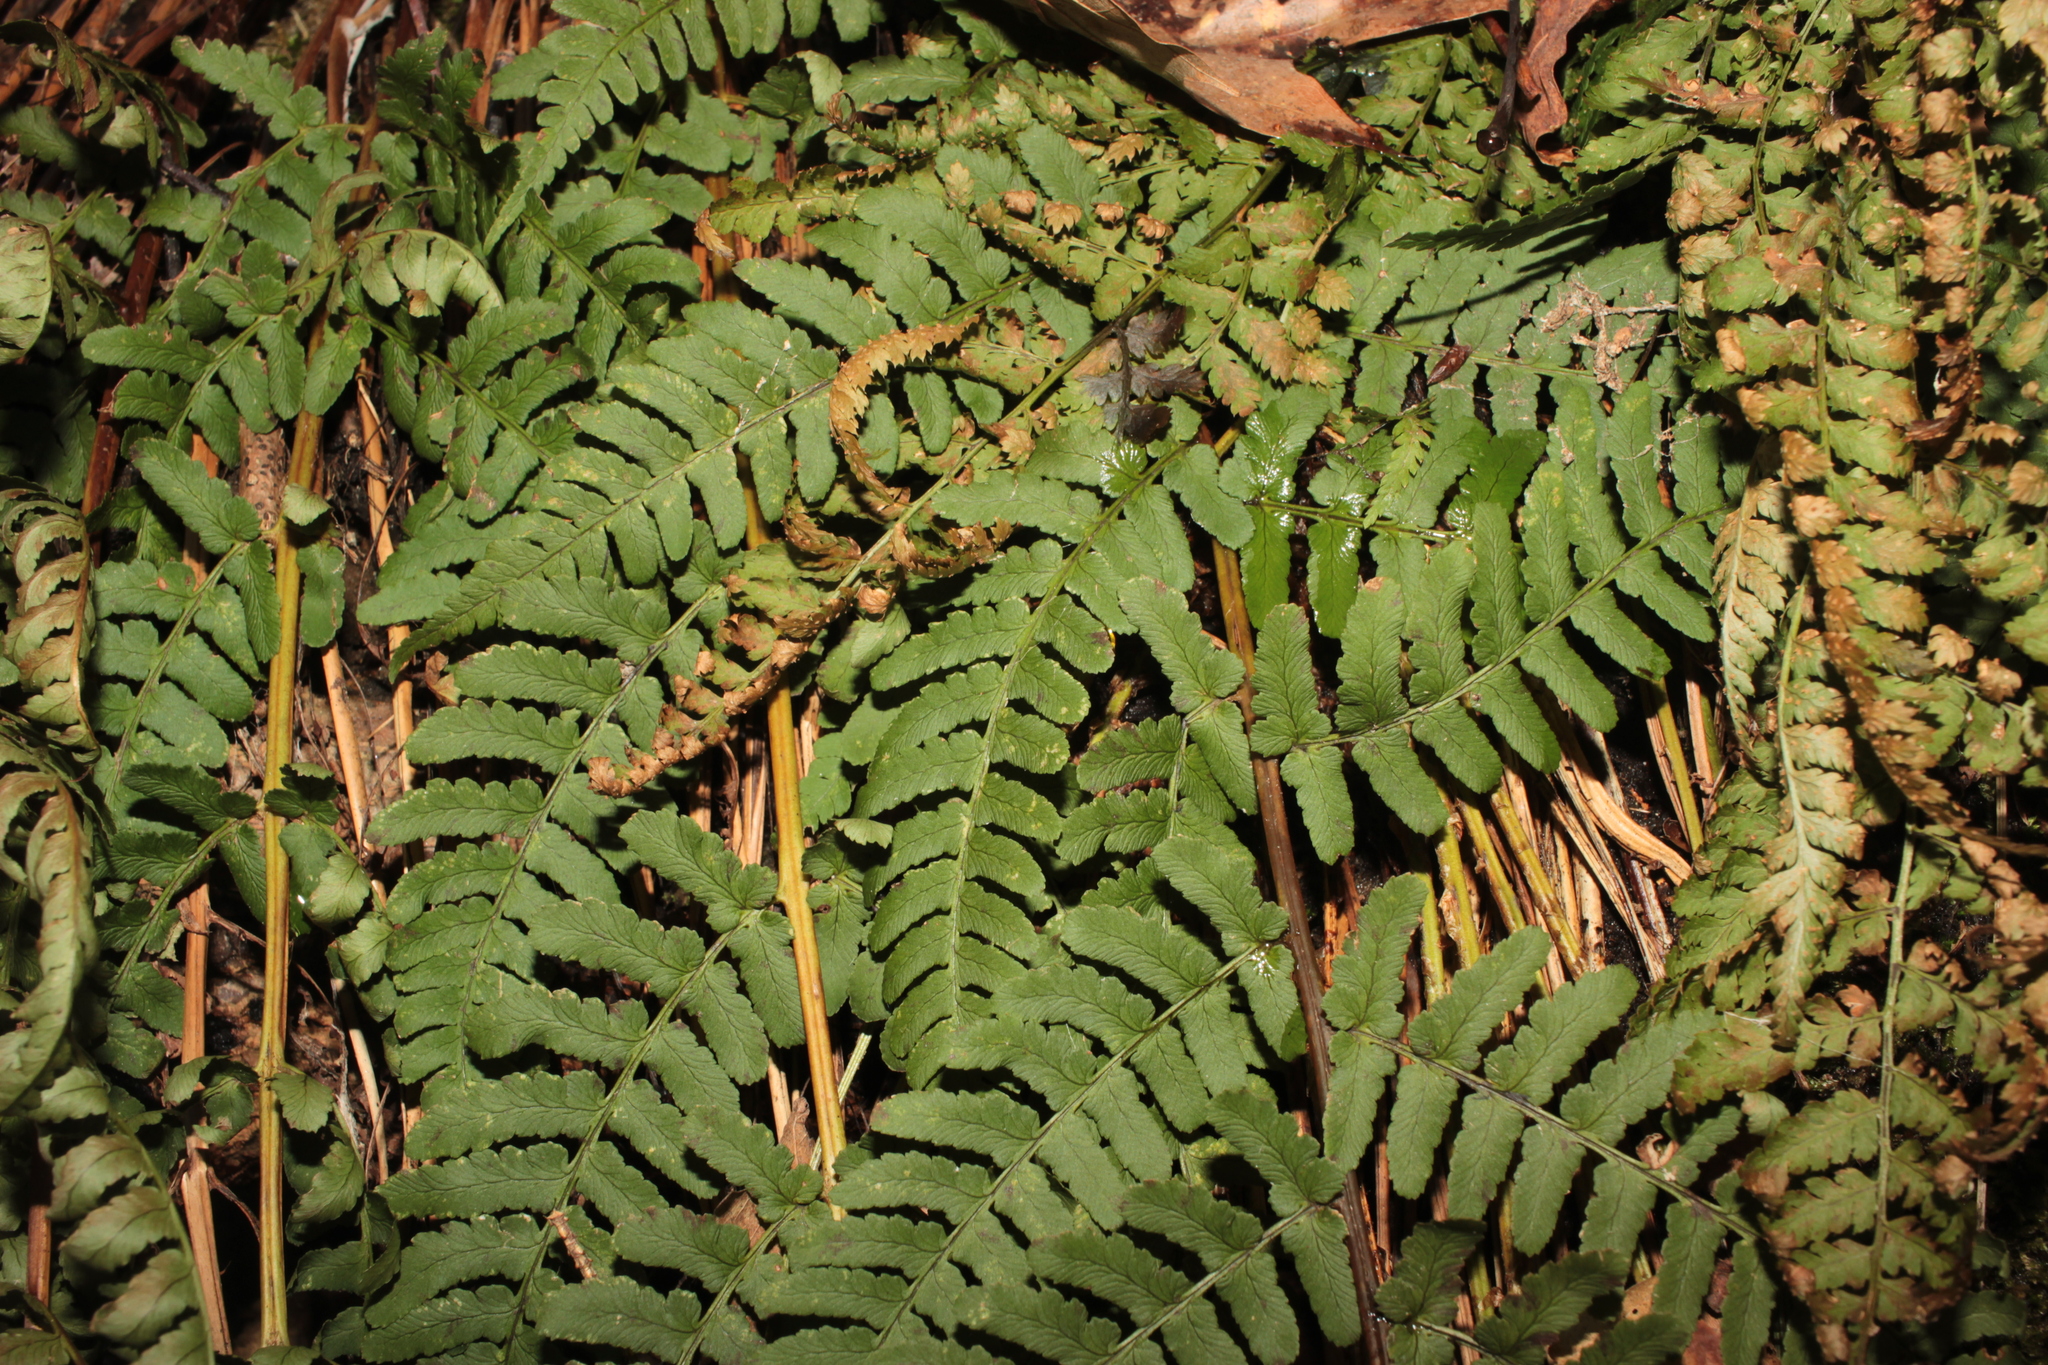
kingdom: Plantae
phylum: Tracheophyta
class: Polypodiopsida
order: Polypodiales
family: Dryopteridaceae
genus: Dryopteris
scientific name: Dryopteris marginalis
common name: Marginal wood fern
